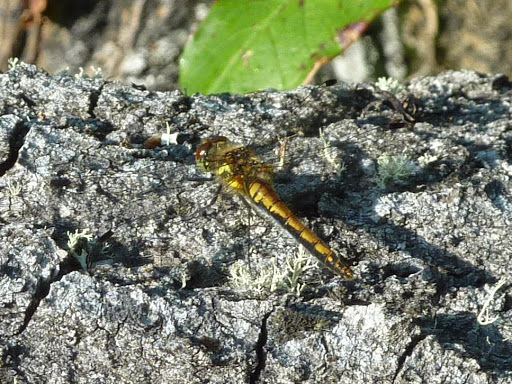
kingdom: Animalia
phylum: Arthropoda
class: Insecta
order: Odonata
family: Libellulidae
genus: Sympetrum
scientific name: Sympetrum danae
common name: Black darter
